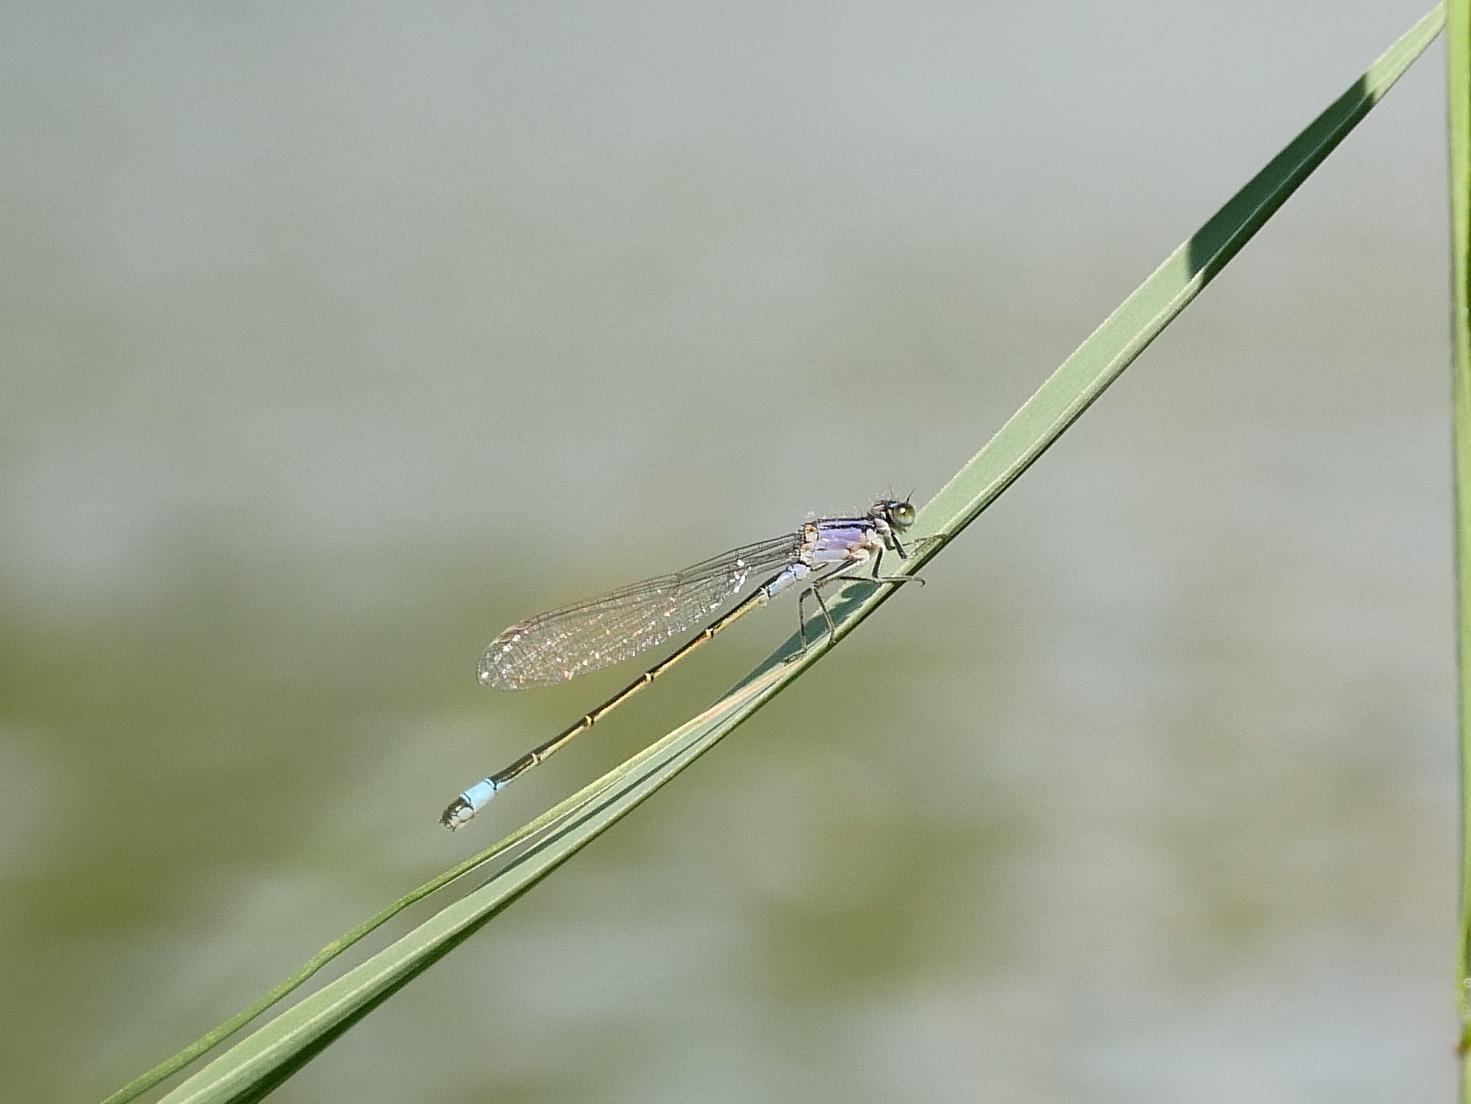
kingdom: Animalia
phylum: Arthropoda
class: Insecta
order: Odonata
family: Coenagrionidae
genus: Ischnura
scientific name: Ischnura elegans
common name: Blue-tailed damselfly
